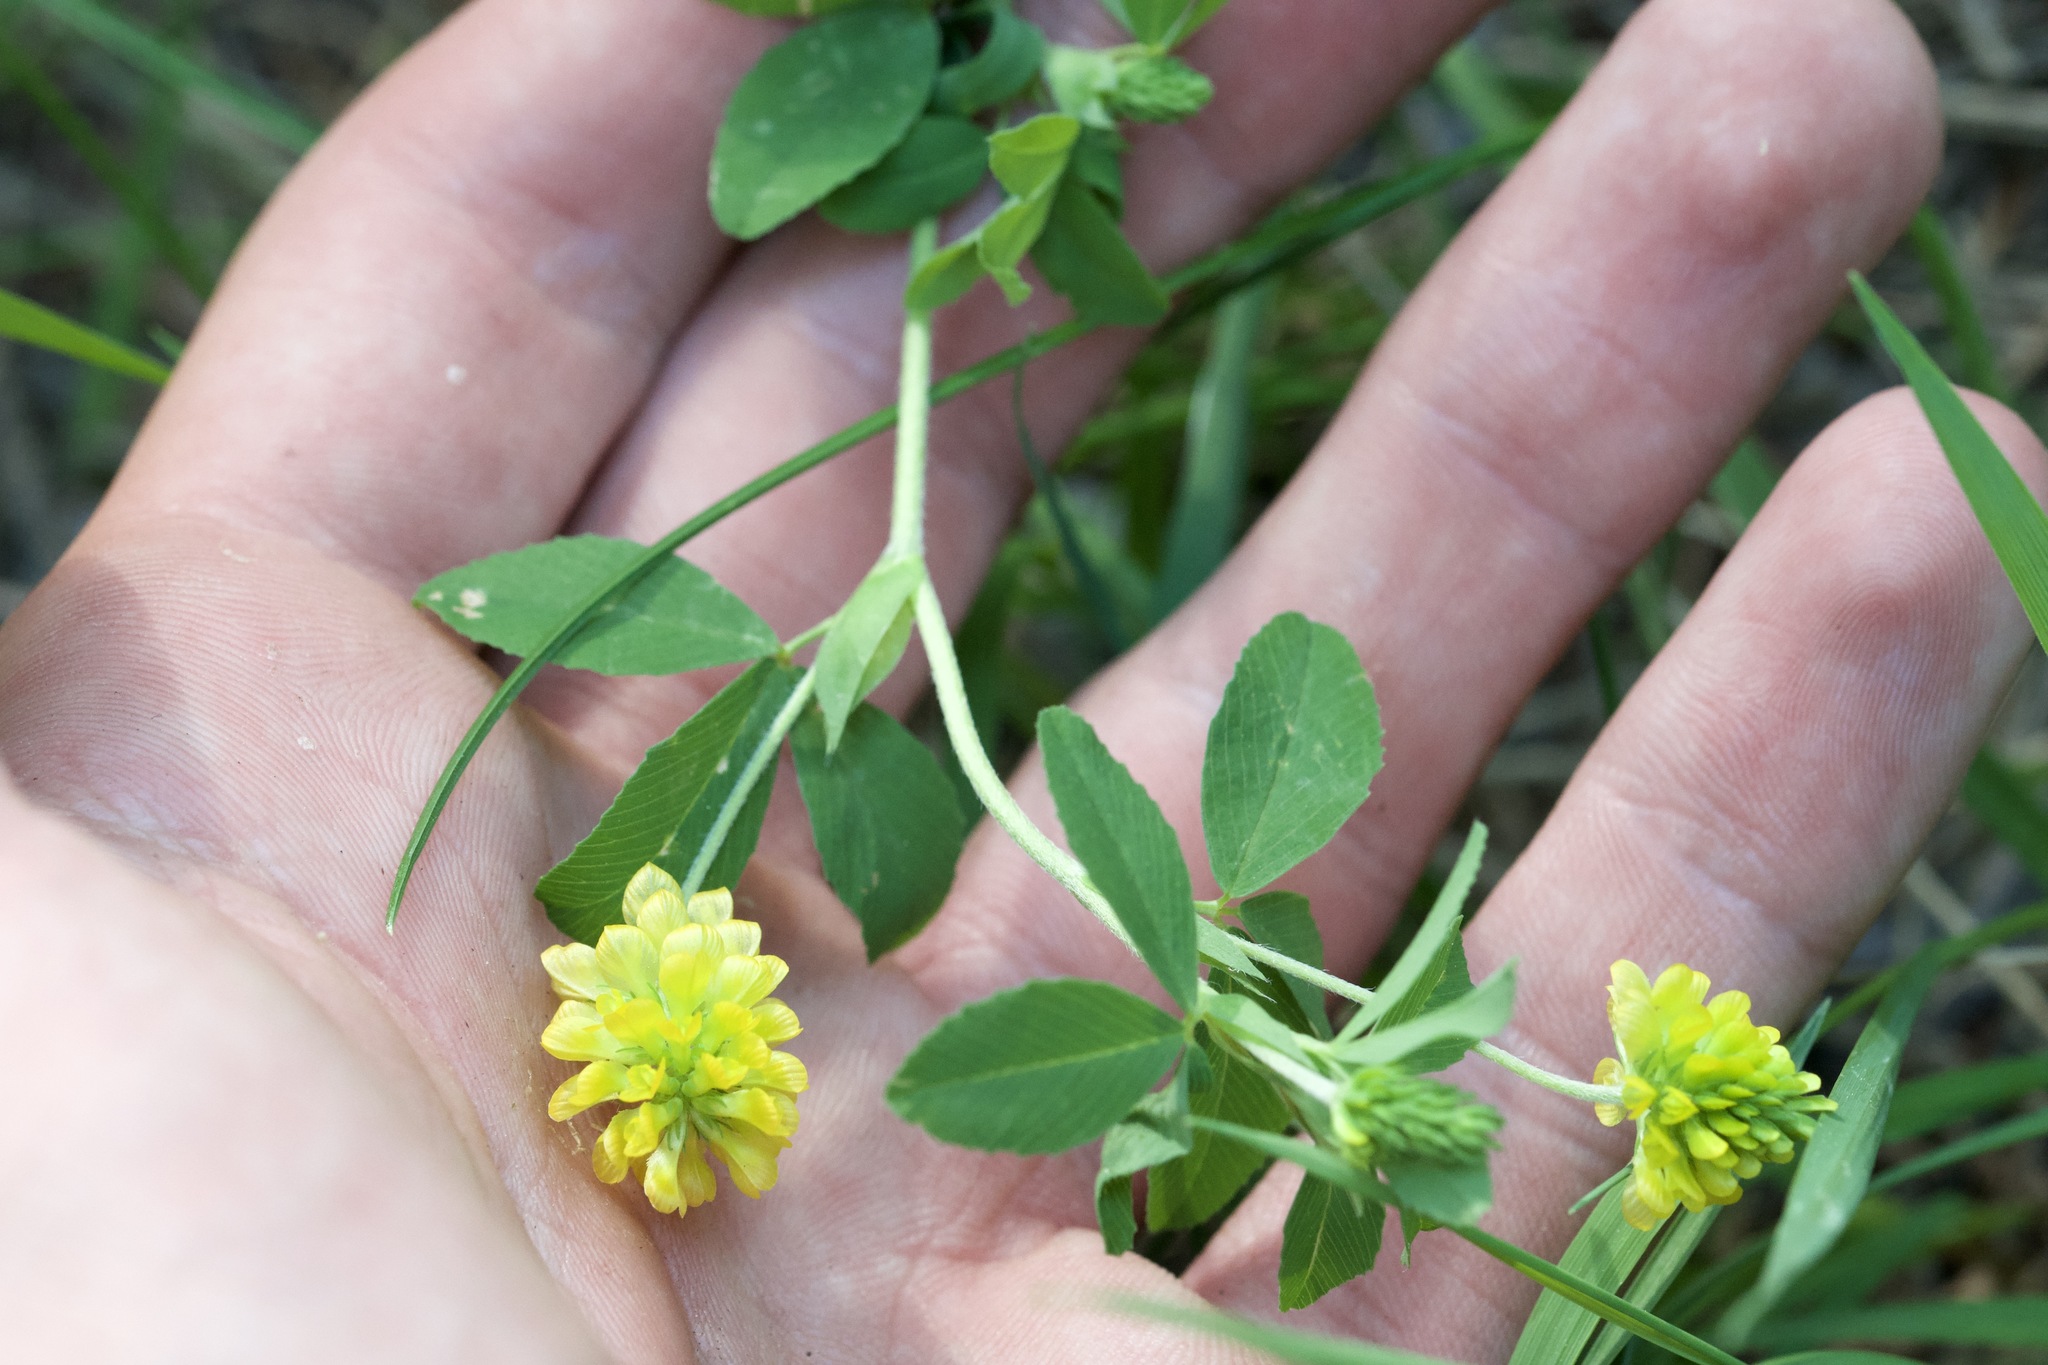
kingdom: Plantae
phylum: Tracheophyta
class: Magnoliopsida
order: Fabales
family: Fabaceae
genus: Trifolium
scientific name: Trifolium aureum
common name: Golden clover
